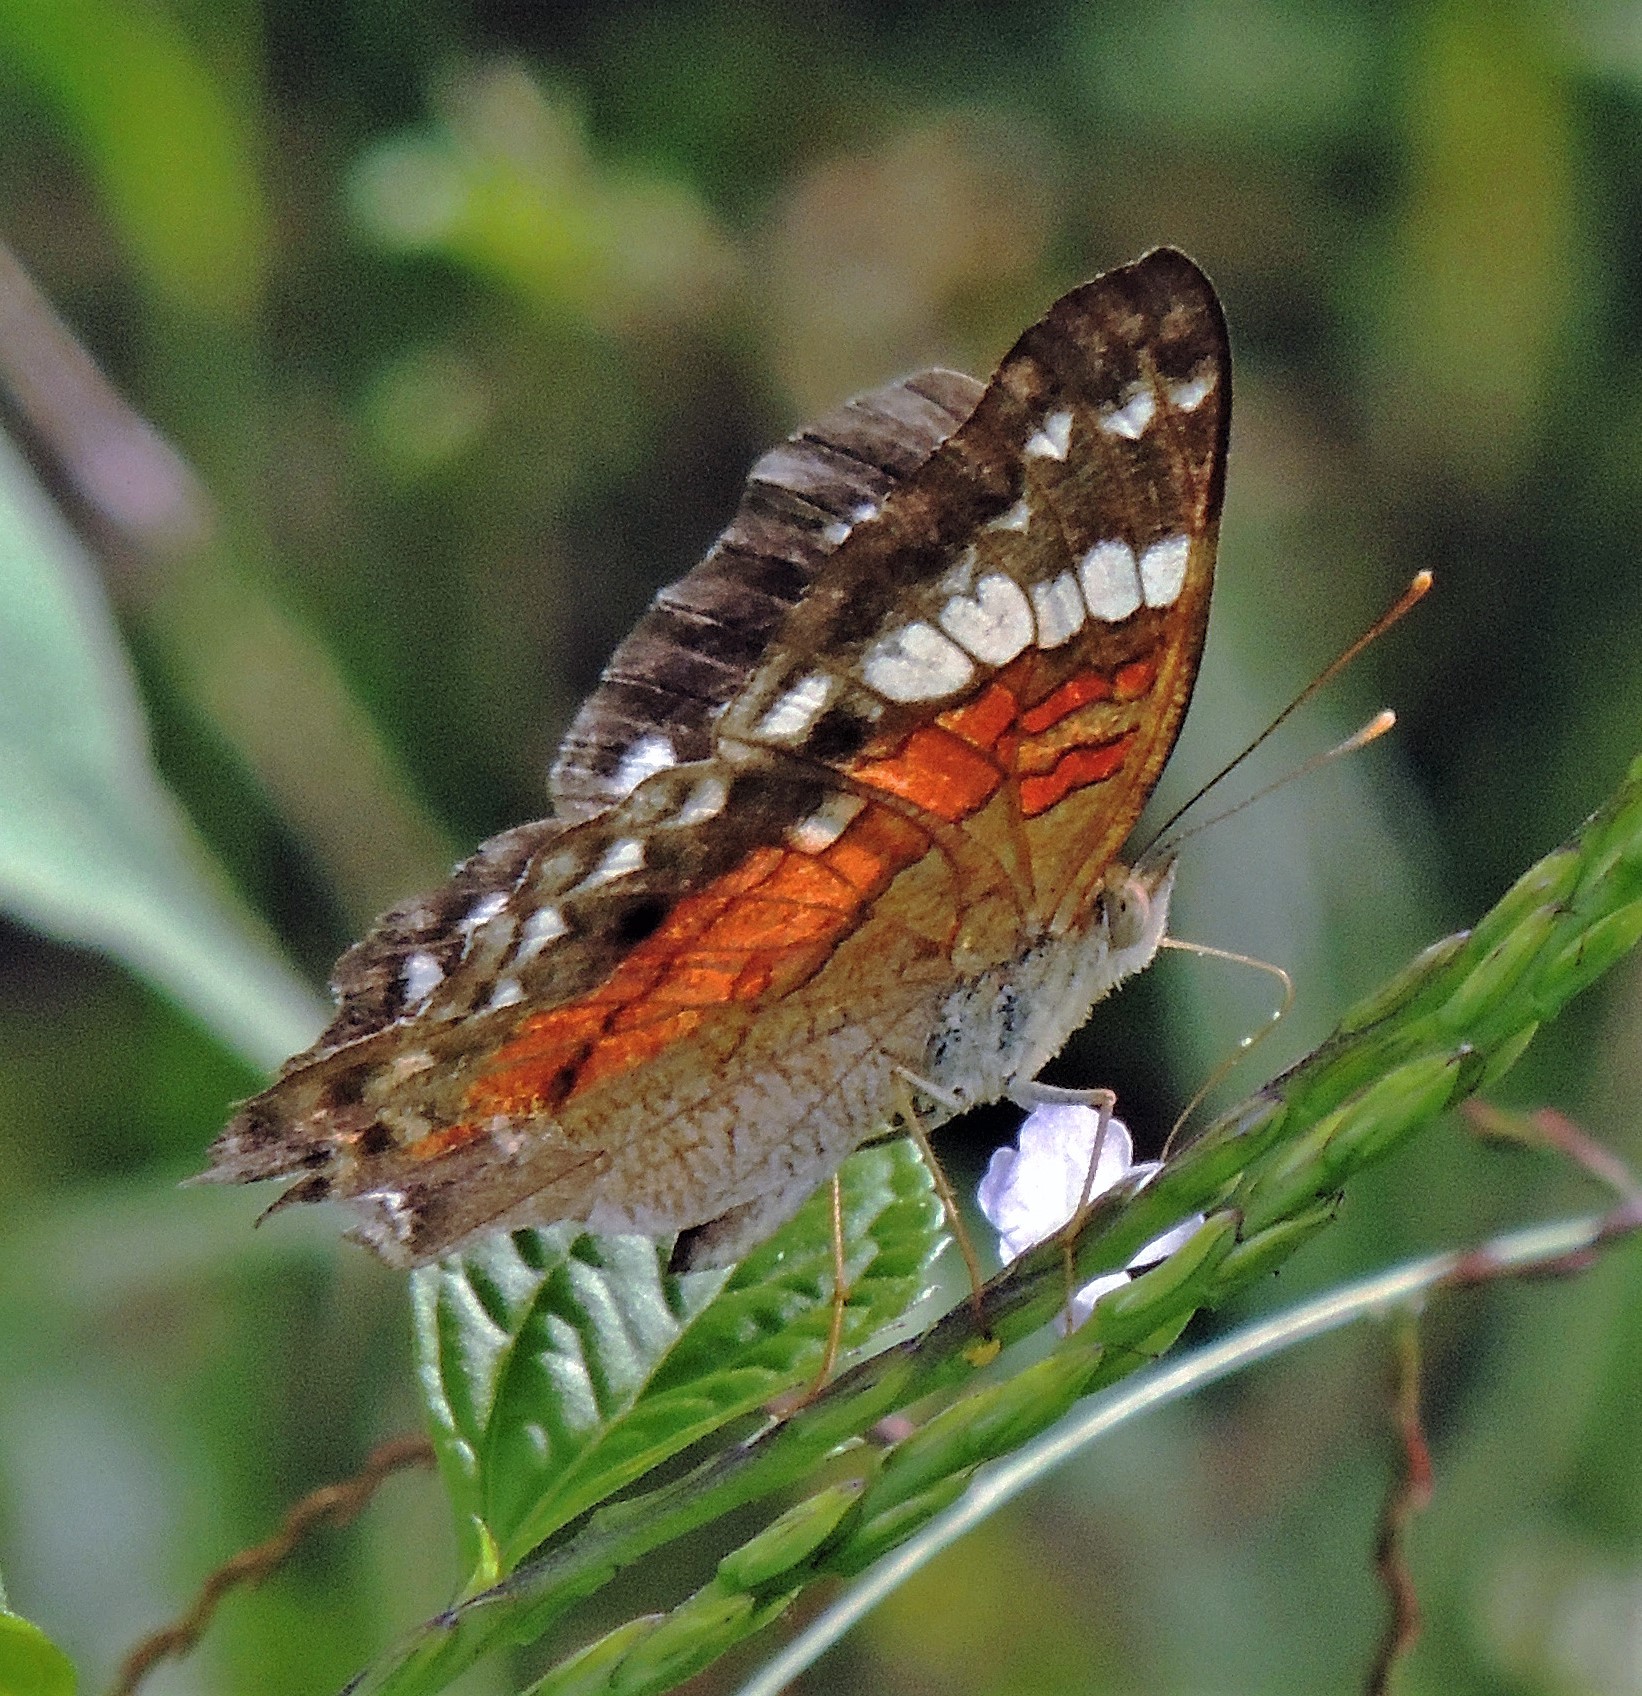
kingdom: Animalia
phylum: Arthropoda
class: Insecta
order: Lepidoptera
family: Nymphalidae
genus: Anartia
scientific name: Anartia amathea
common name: Red peacock
